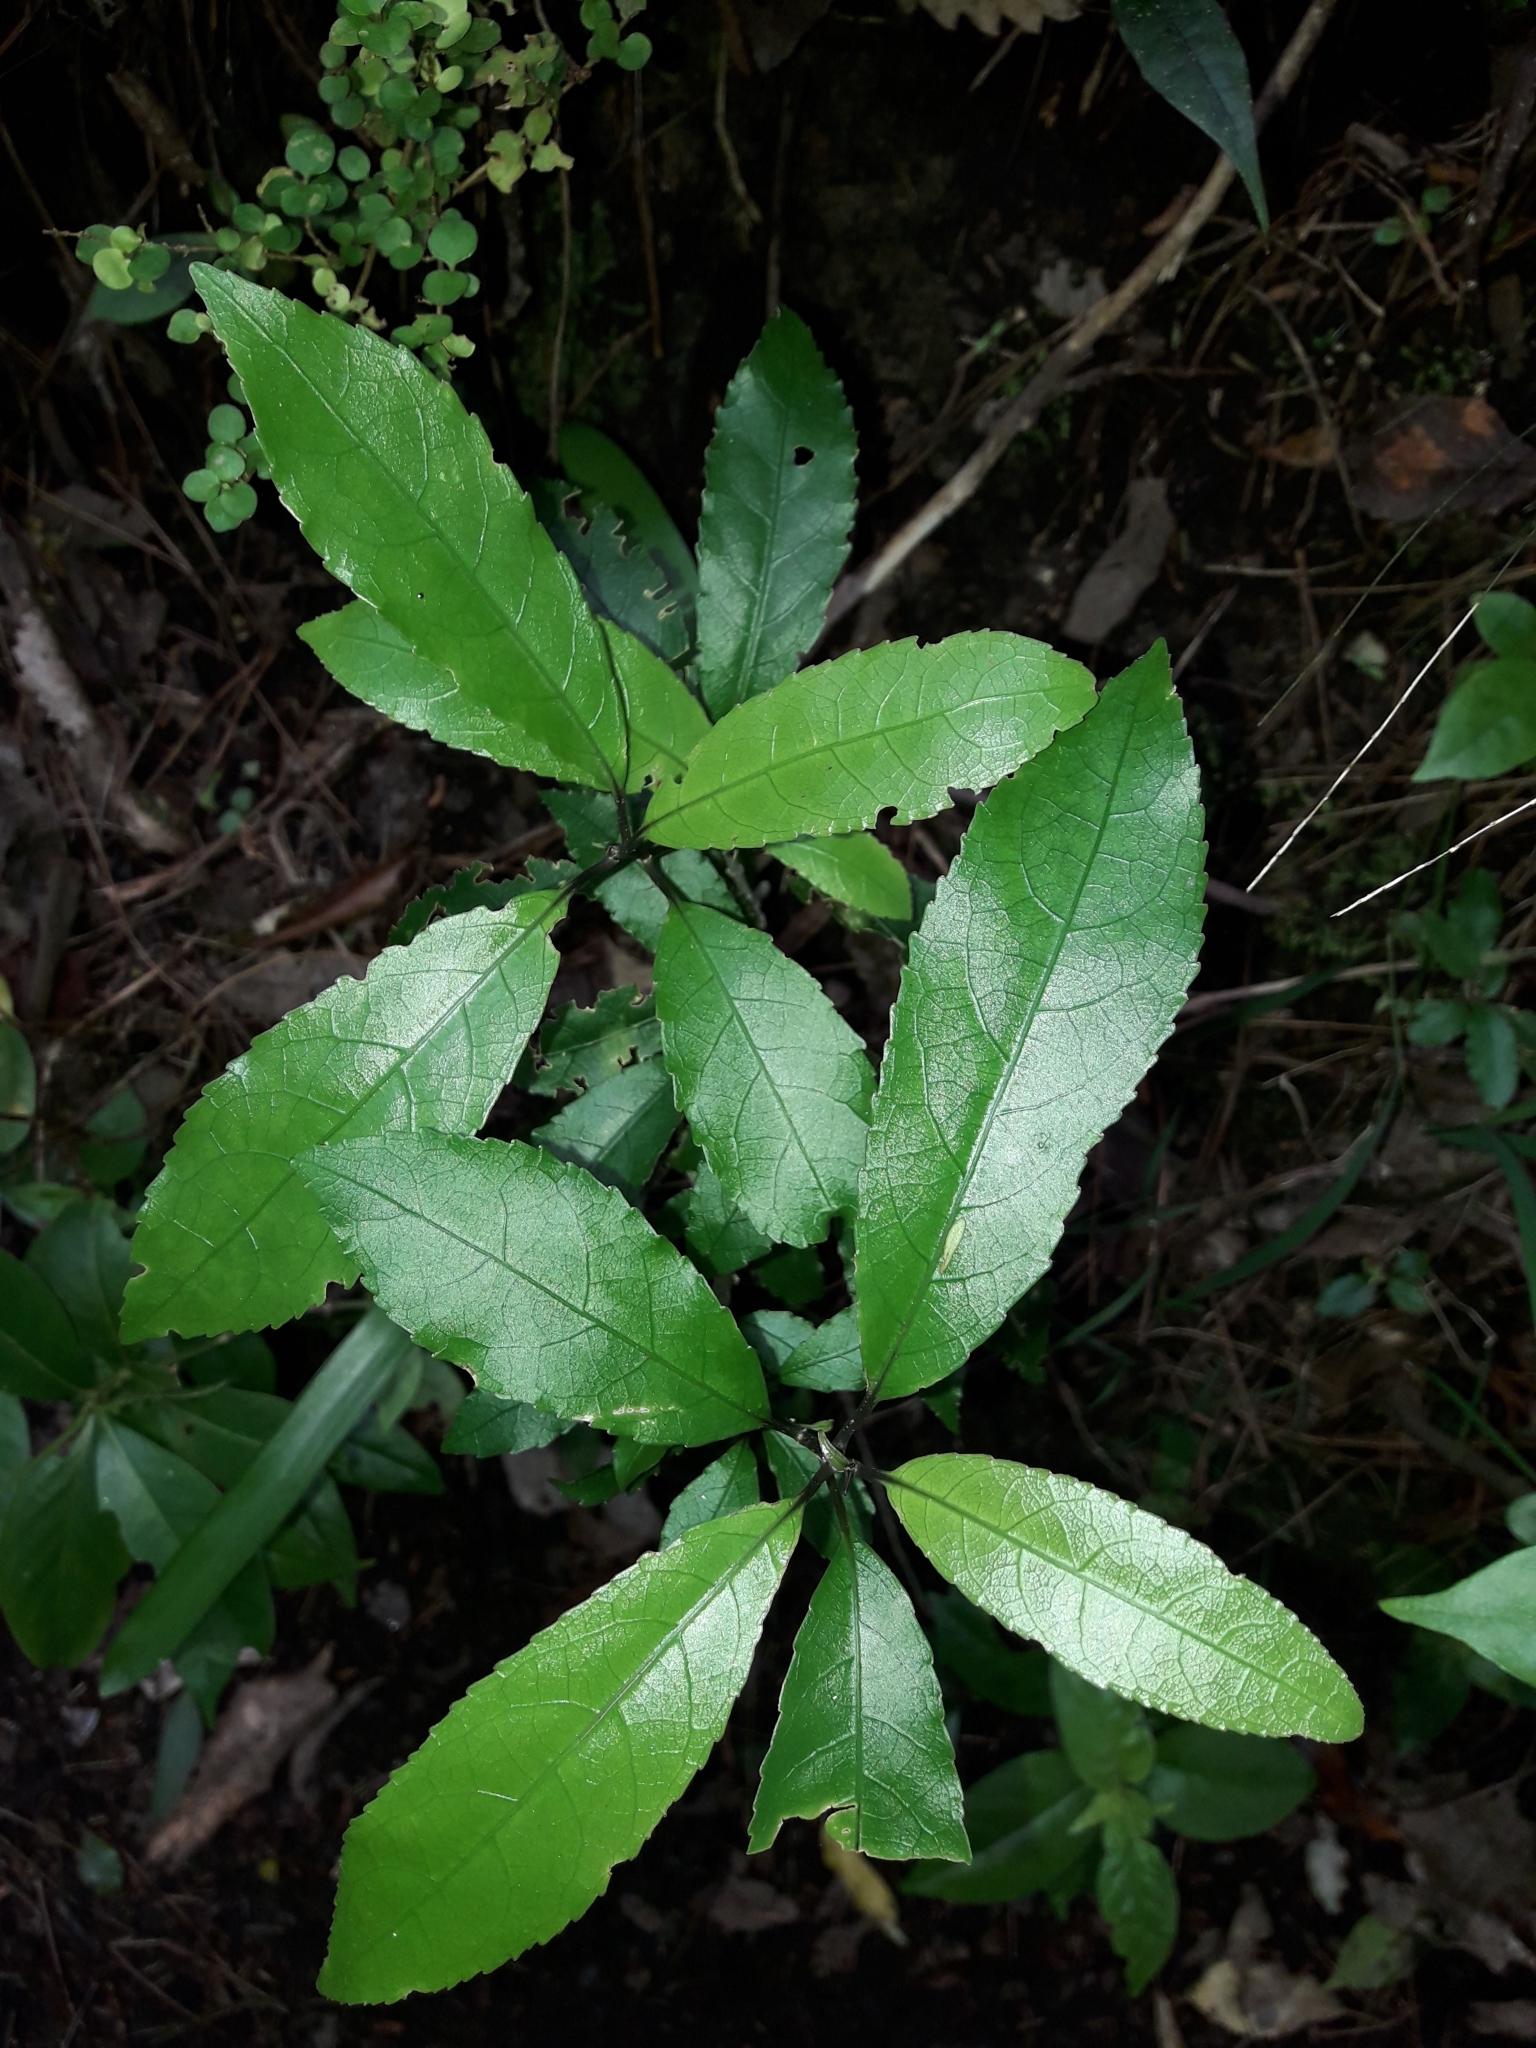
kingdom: Plantae
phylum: Tracheophyta
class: Magnoliopsida
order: Malpighiales
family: Violaceae
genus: Melicytus
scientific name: Melicytus ramiflorus
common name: Mahoe
